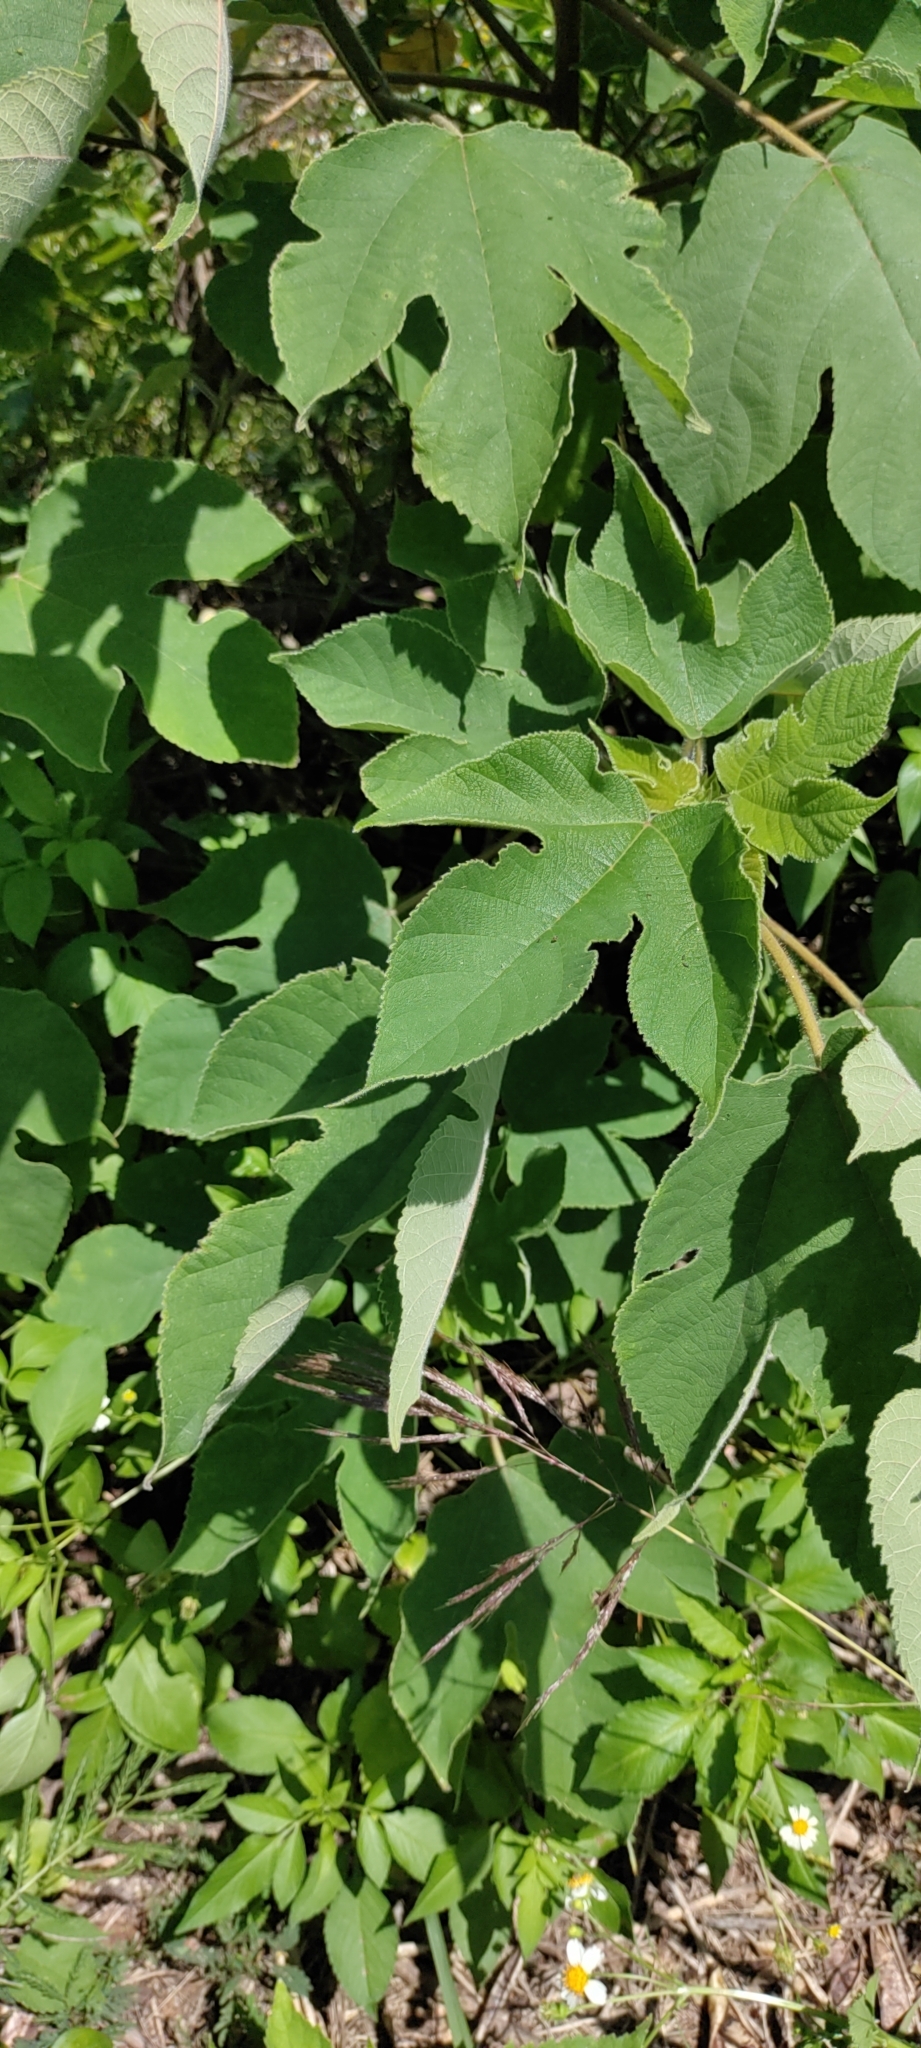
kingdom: Plantae
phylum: Tracheophyta
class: Magnoliopsida
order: Rosales
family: Moraceae
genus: Broussonetia
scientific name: Broussonetia papyrifera
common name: Paper mulberry
